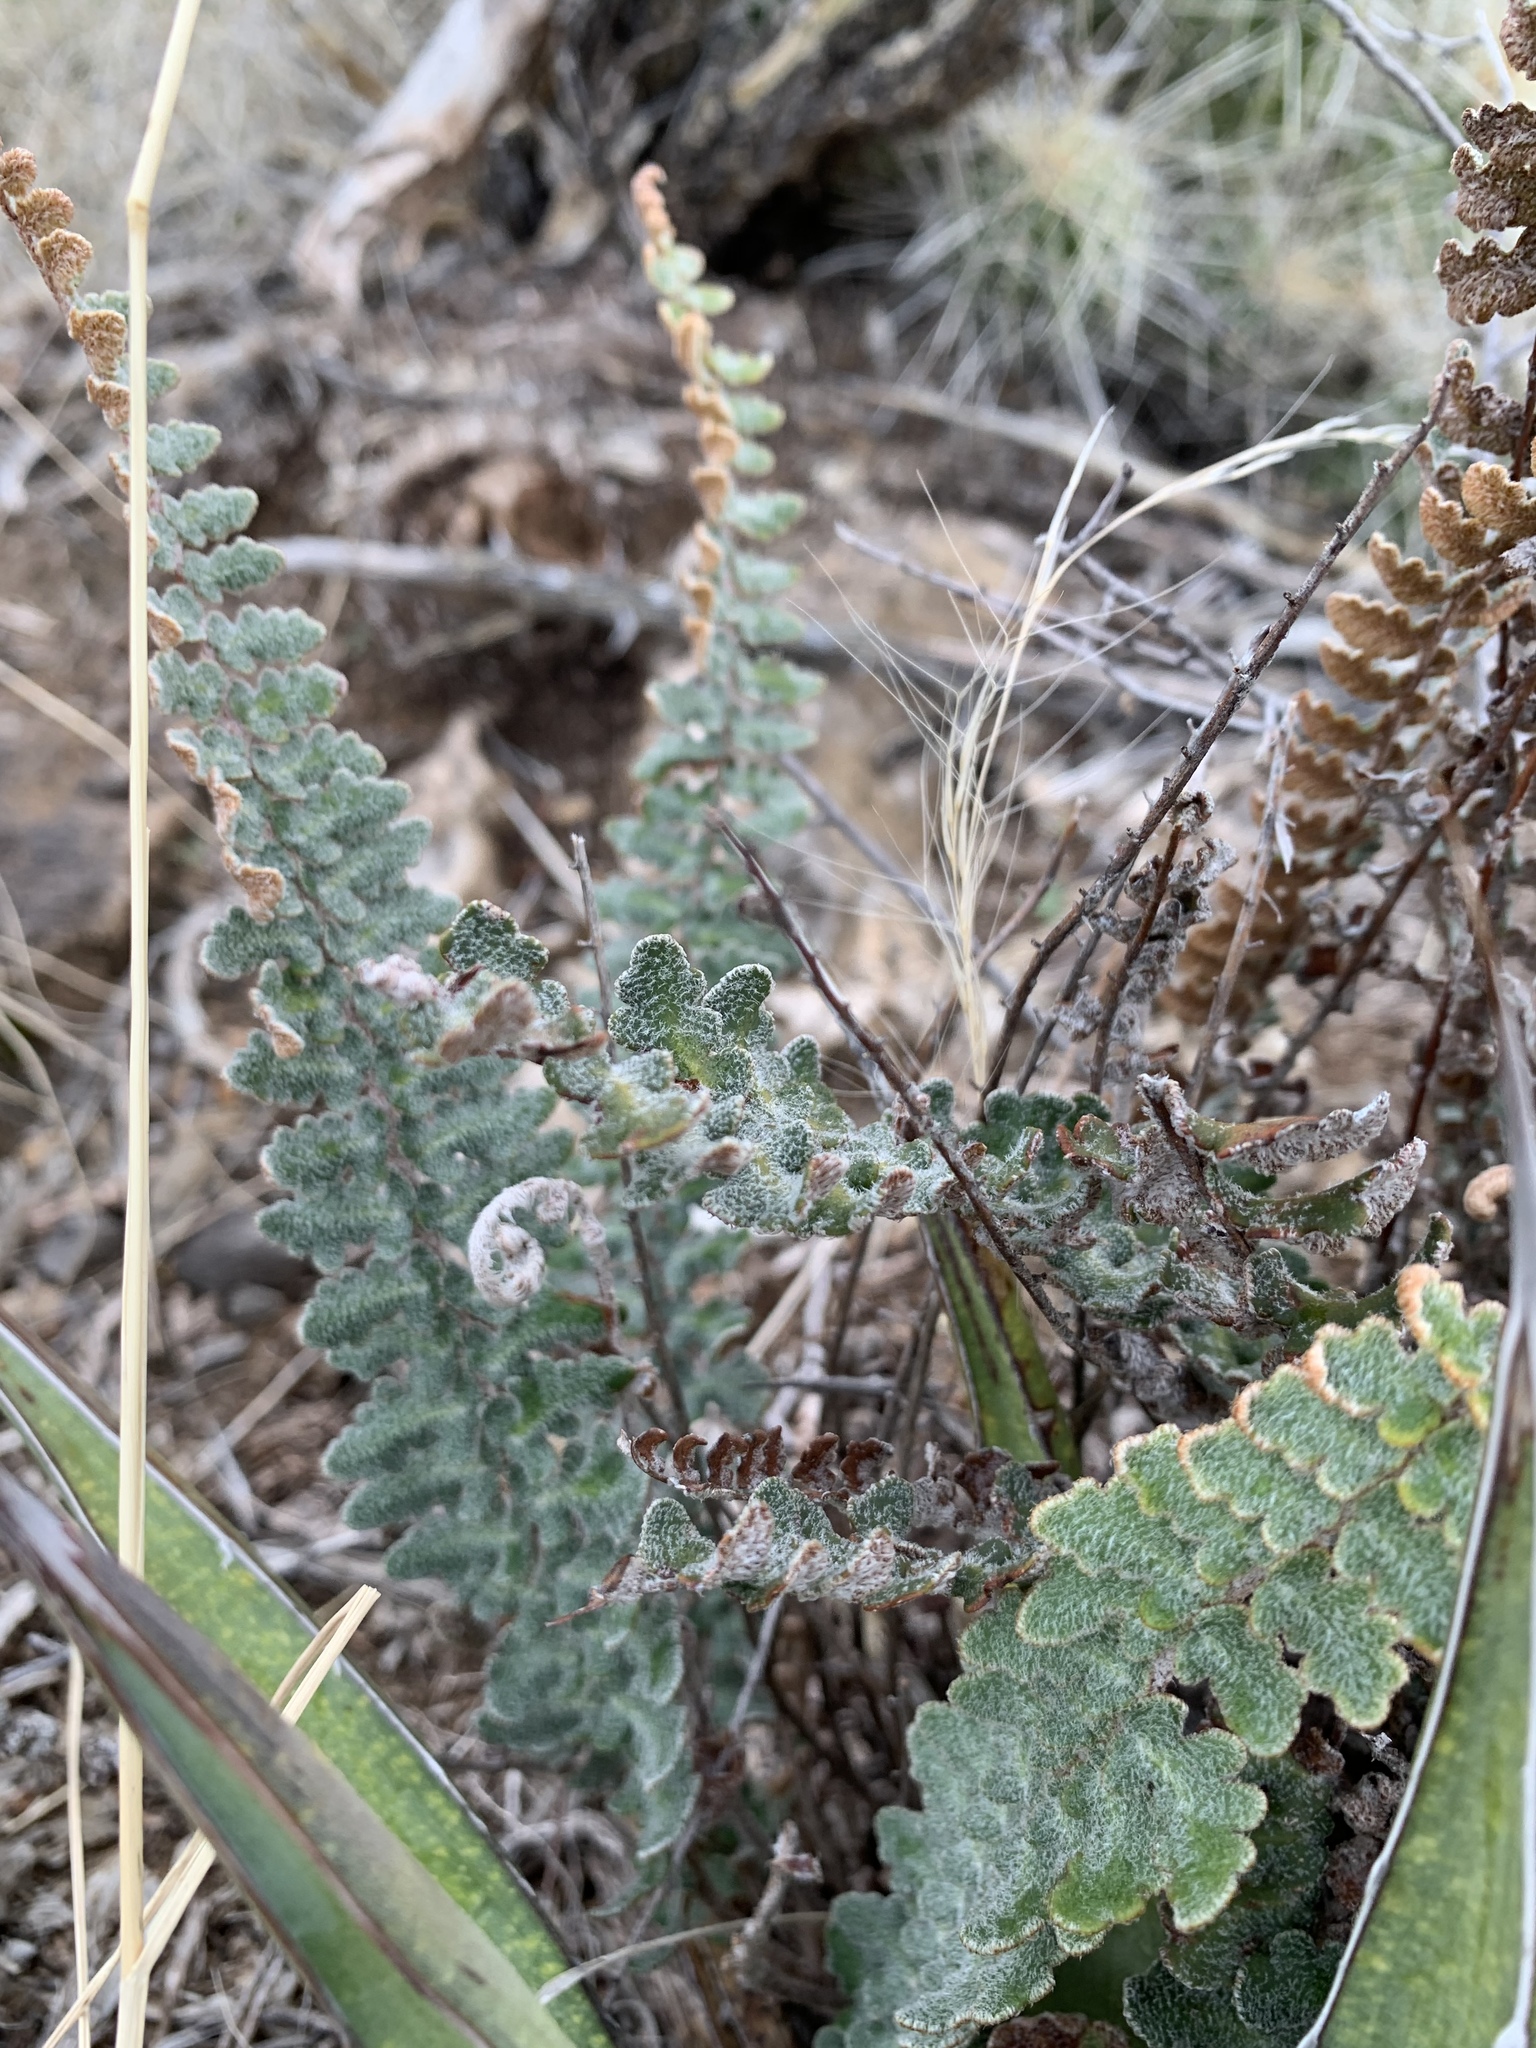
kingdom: Plantae
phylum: Tracheophyta
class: Polypodiopsida
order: Polypodiales
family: Pteridaceae
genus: Astrolepis
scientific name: Astrolepis integerrima
